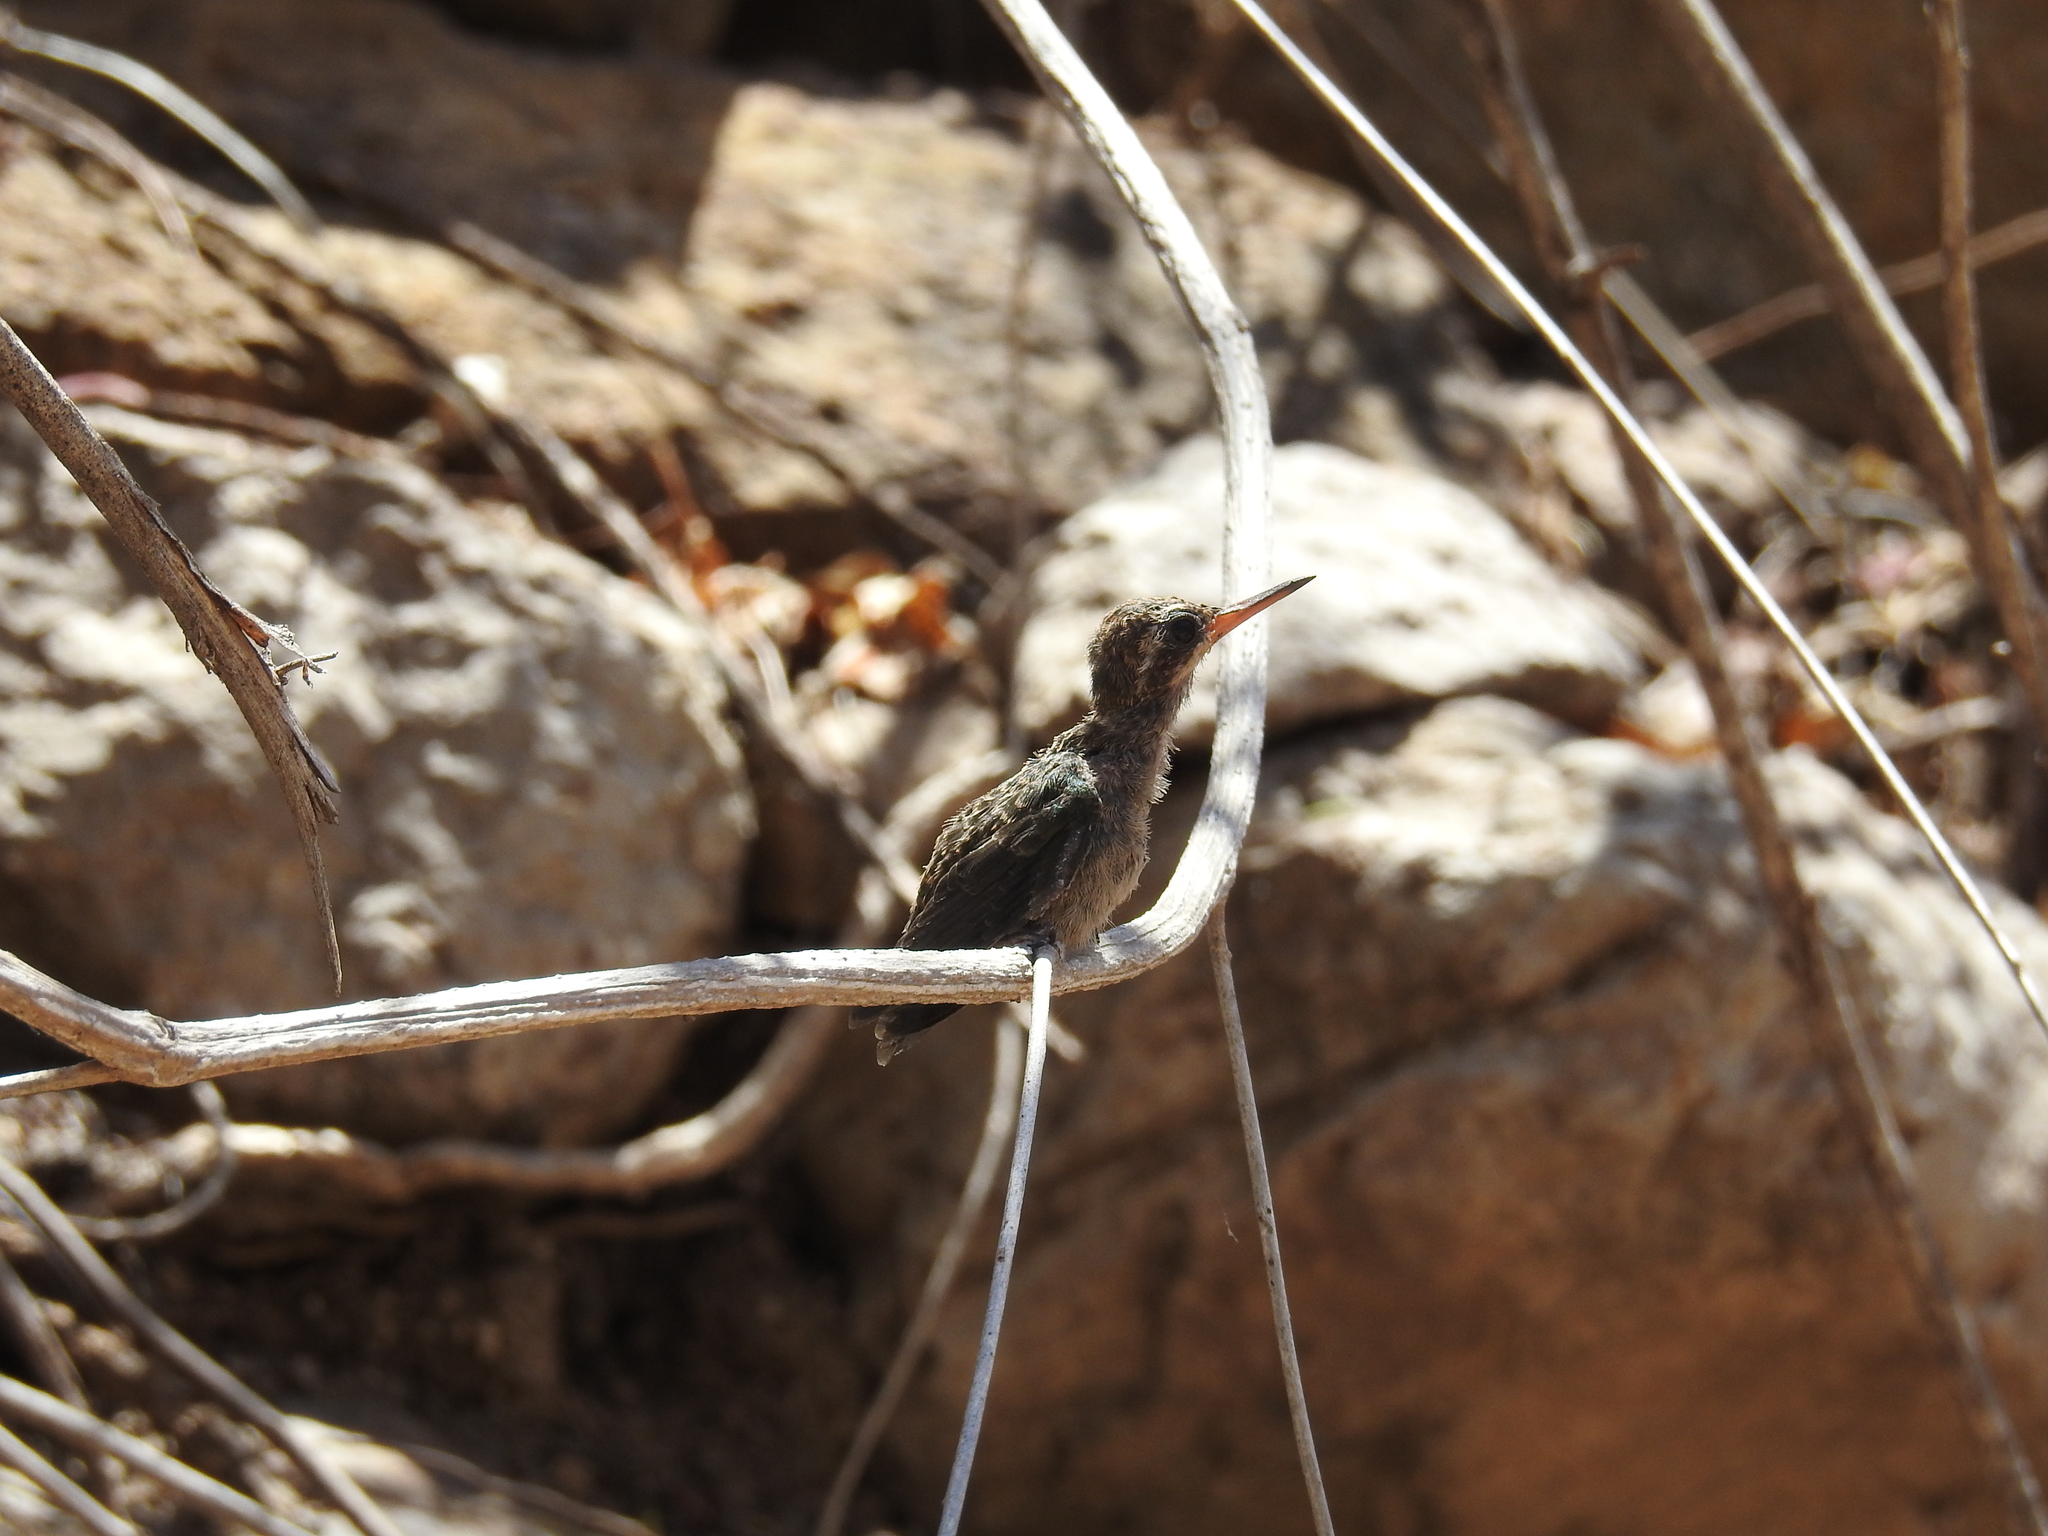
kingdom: Animalia
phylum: Chordata
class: Aves
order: Apodiformes
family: Trochilidae
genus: Cynanthus
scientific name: Cynanthus latirostris
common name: Broad-billed hummingbird
